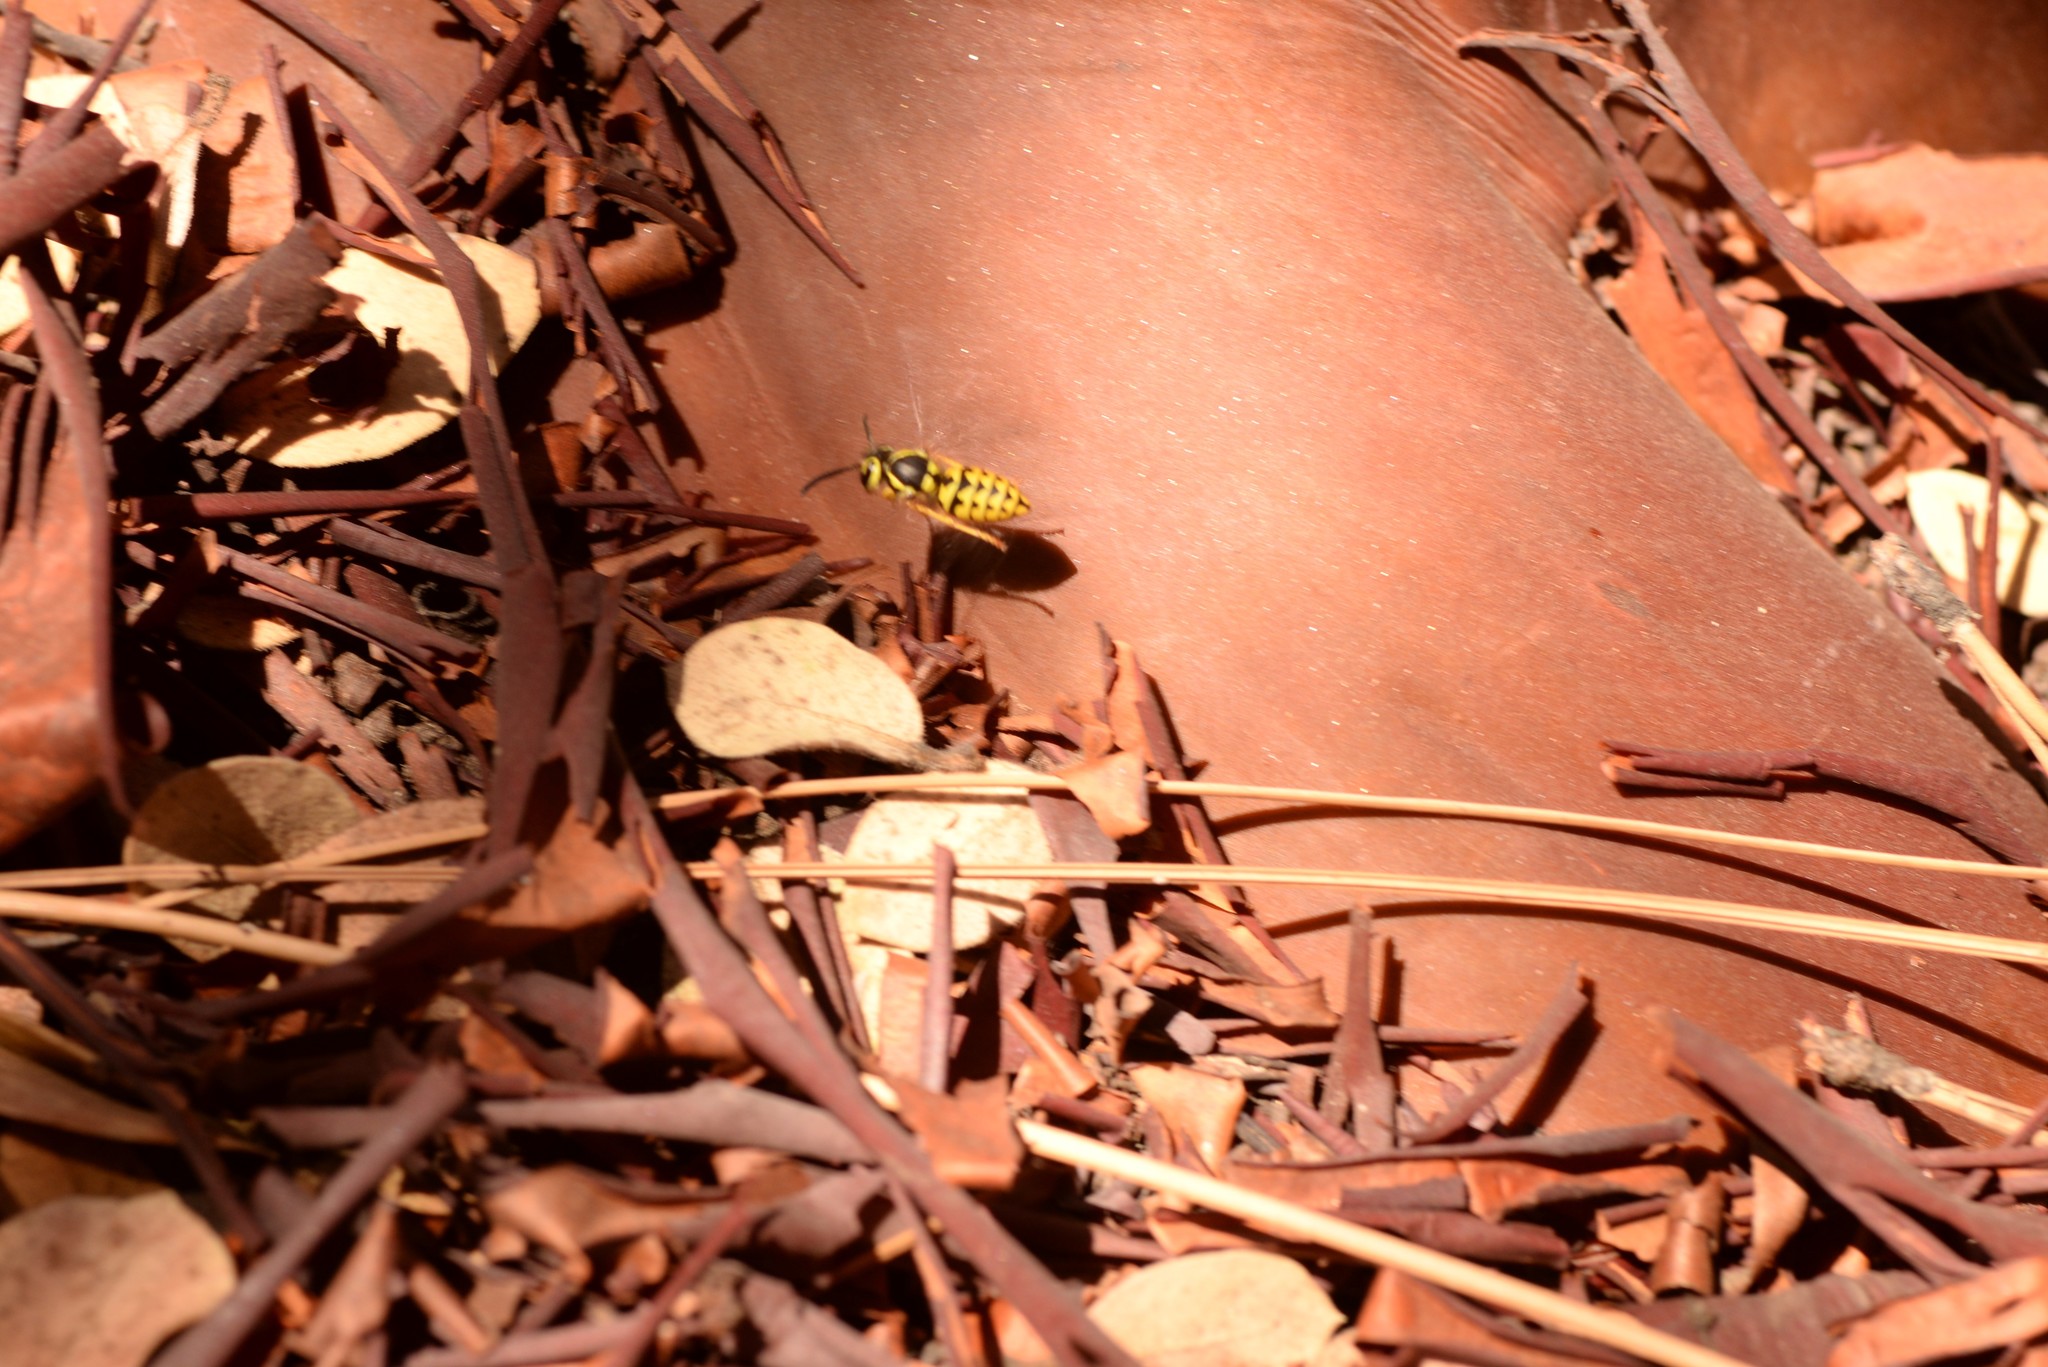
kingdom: Animalia
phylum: Arthropoda
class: Insecta
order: Hymenoptera
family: Vespidae
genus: Vespula
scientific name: Vespula pensylvanica
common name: Western yellowjacket
